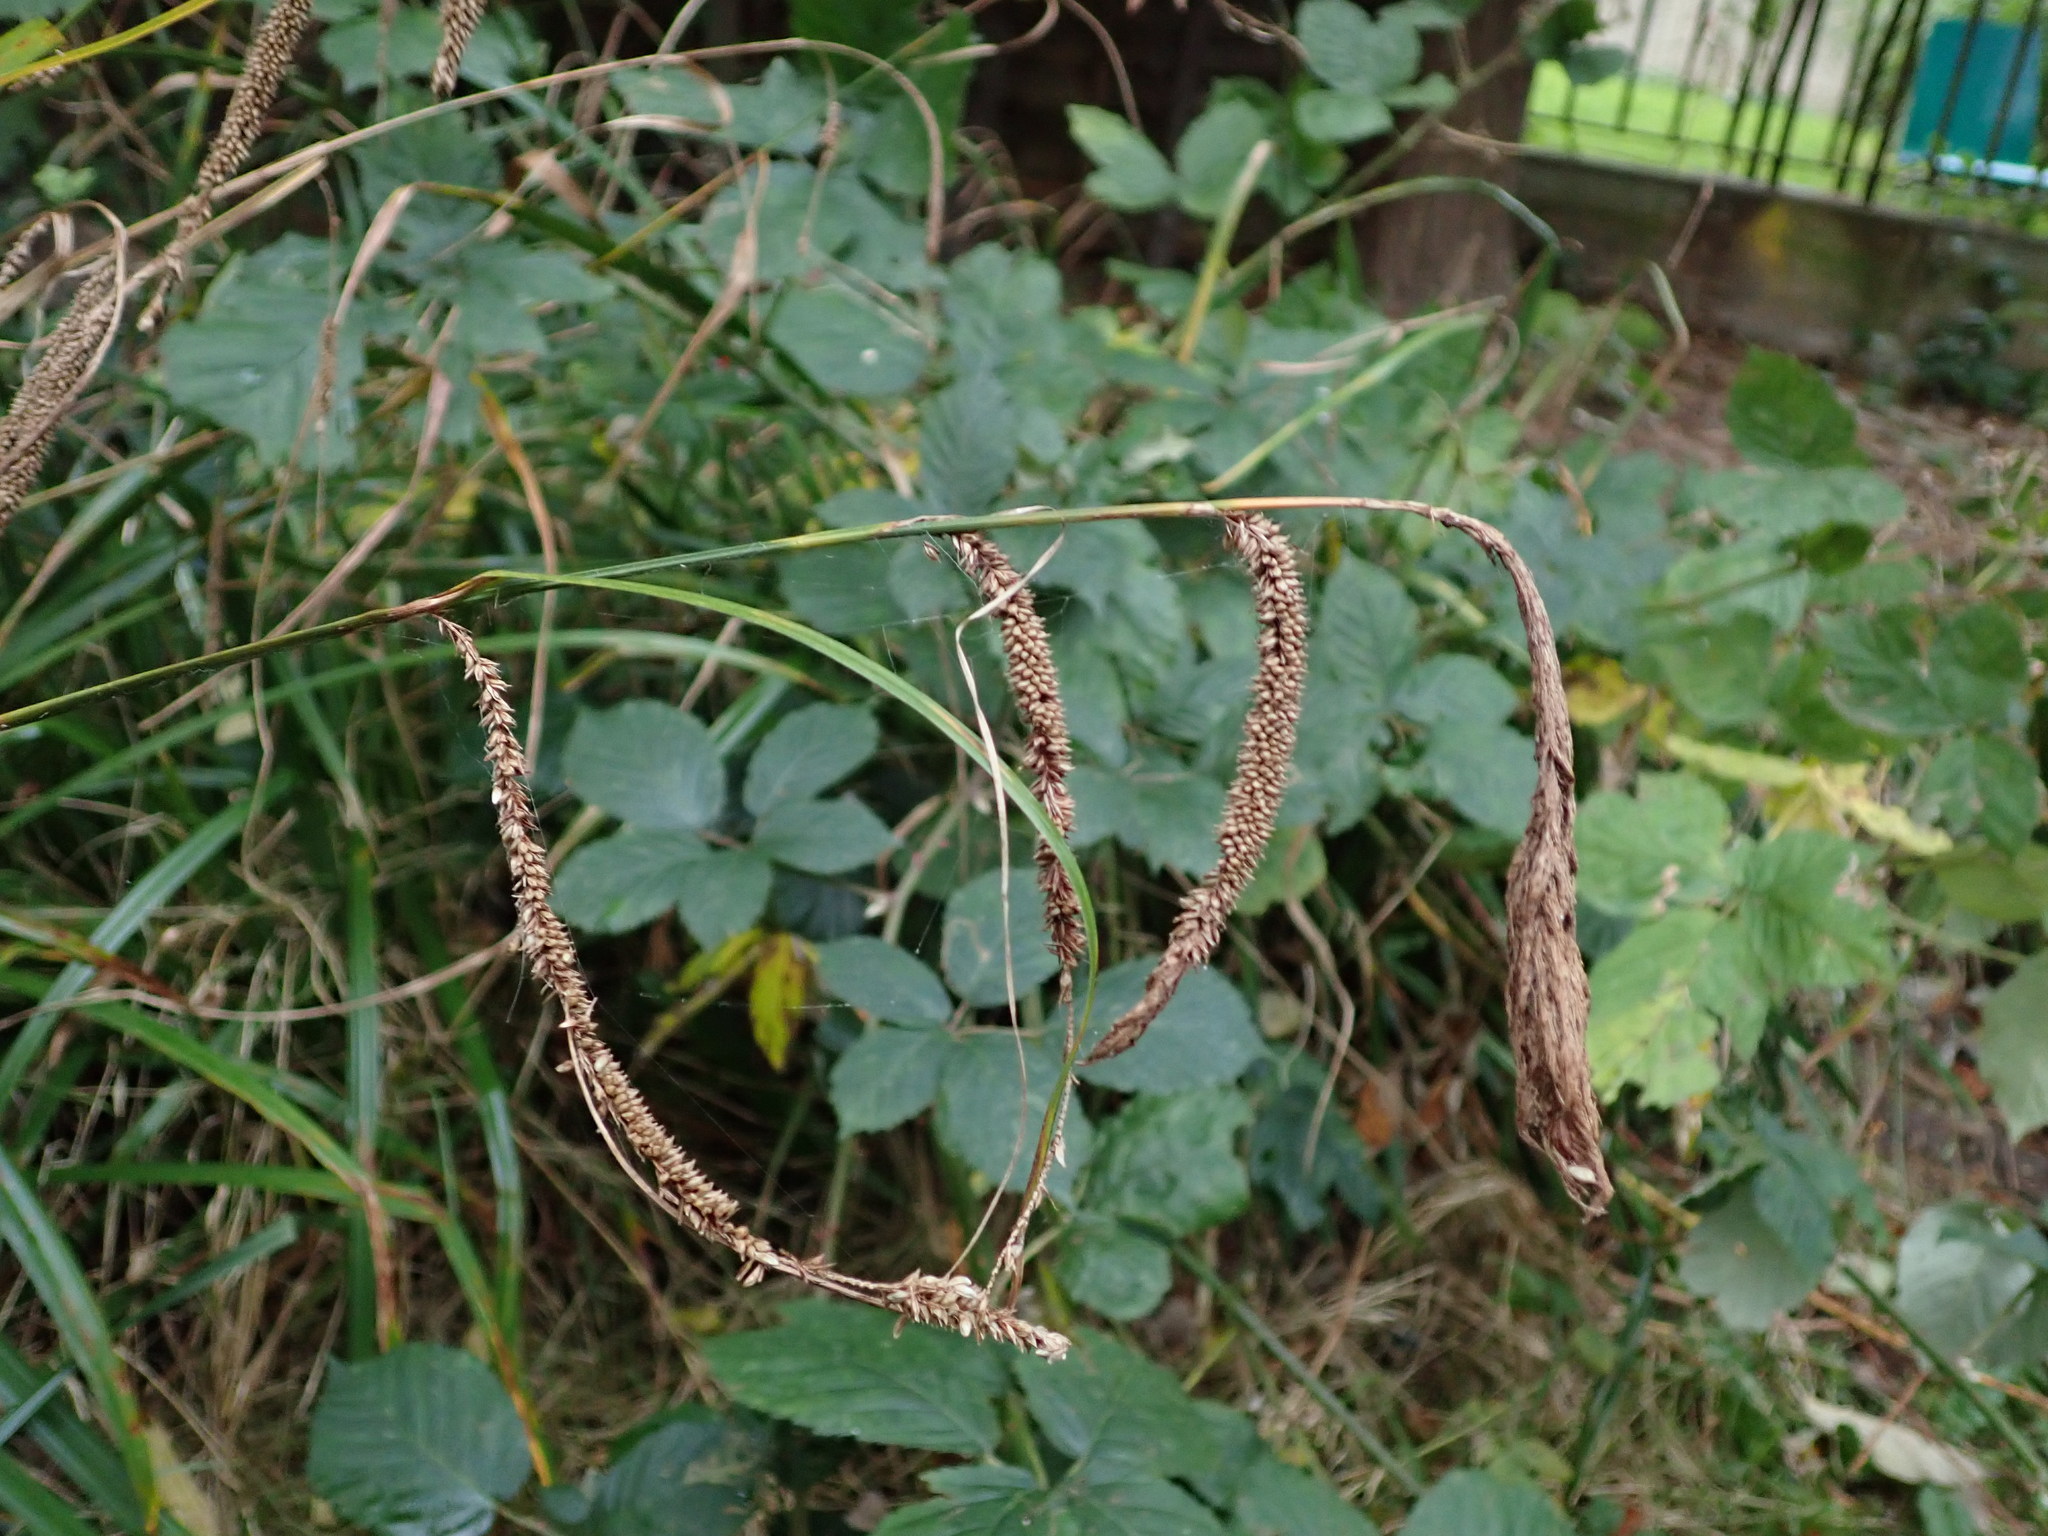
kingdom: Plantae
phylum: Tracheophyta
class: Liliopsida
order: Poales
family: Cyperaceae
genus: Carex
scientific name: Carex pendula
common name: Pendulous sedge
